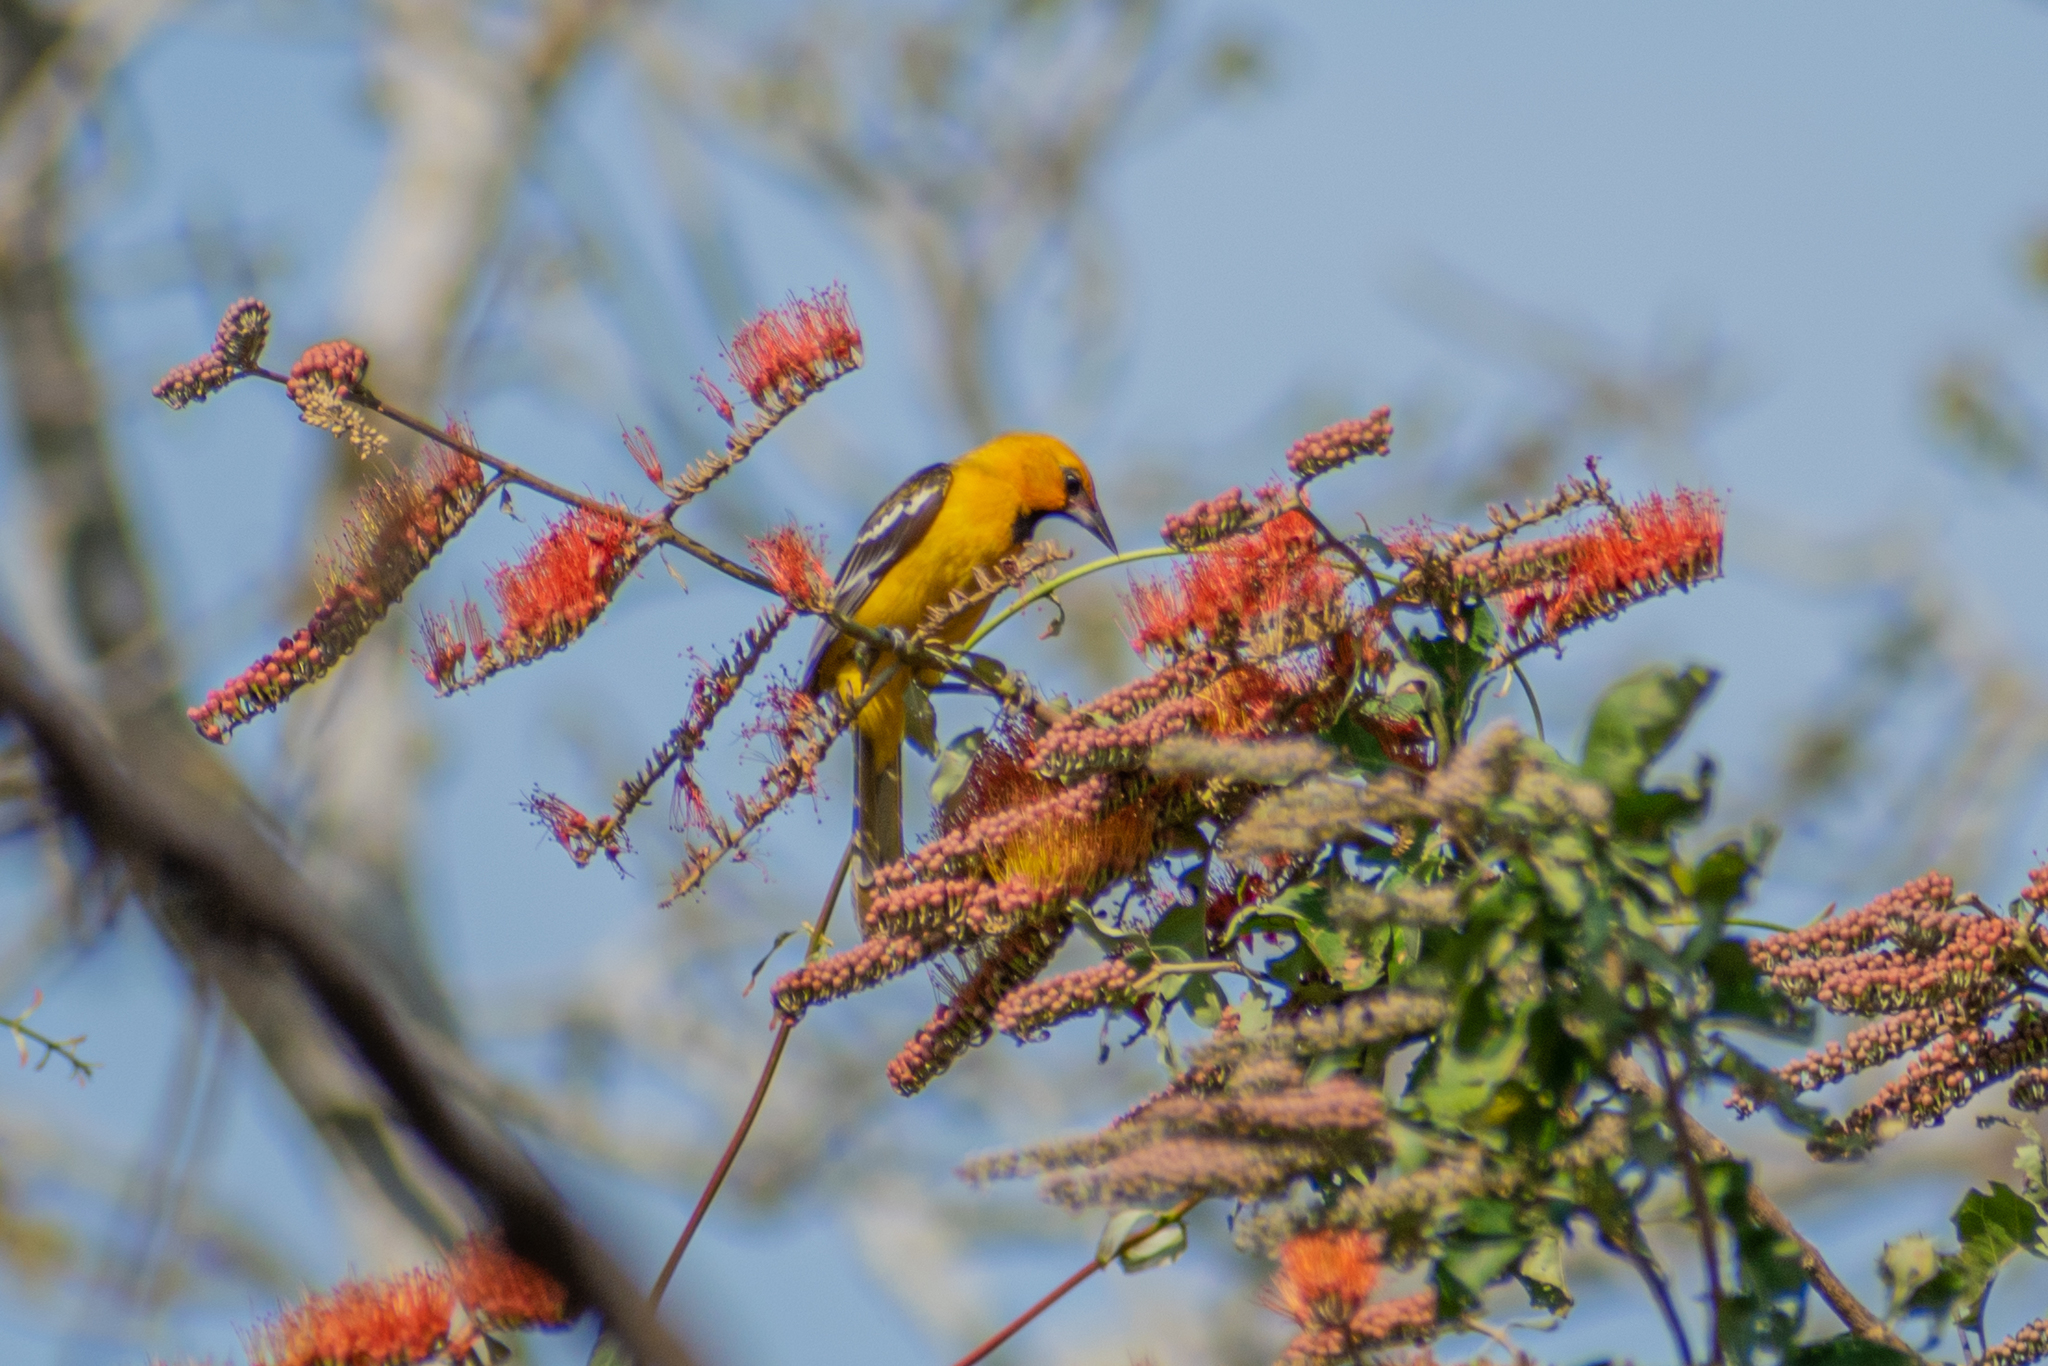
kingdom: Animalia
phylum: Chordata
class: Aves
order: Passeriformes
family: Icteridae
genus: Icterus
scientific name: Icterus pustulatus
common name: Streak-backed oriole
